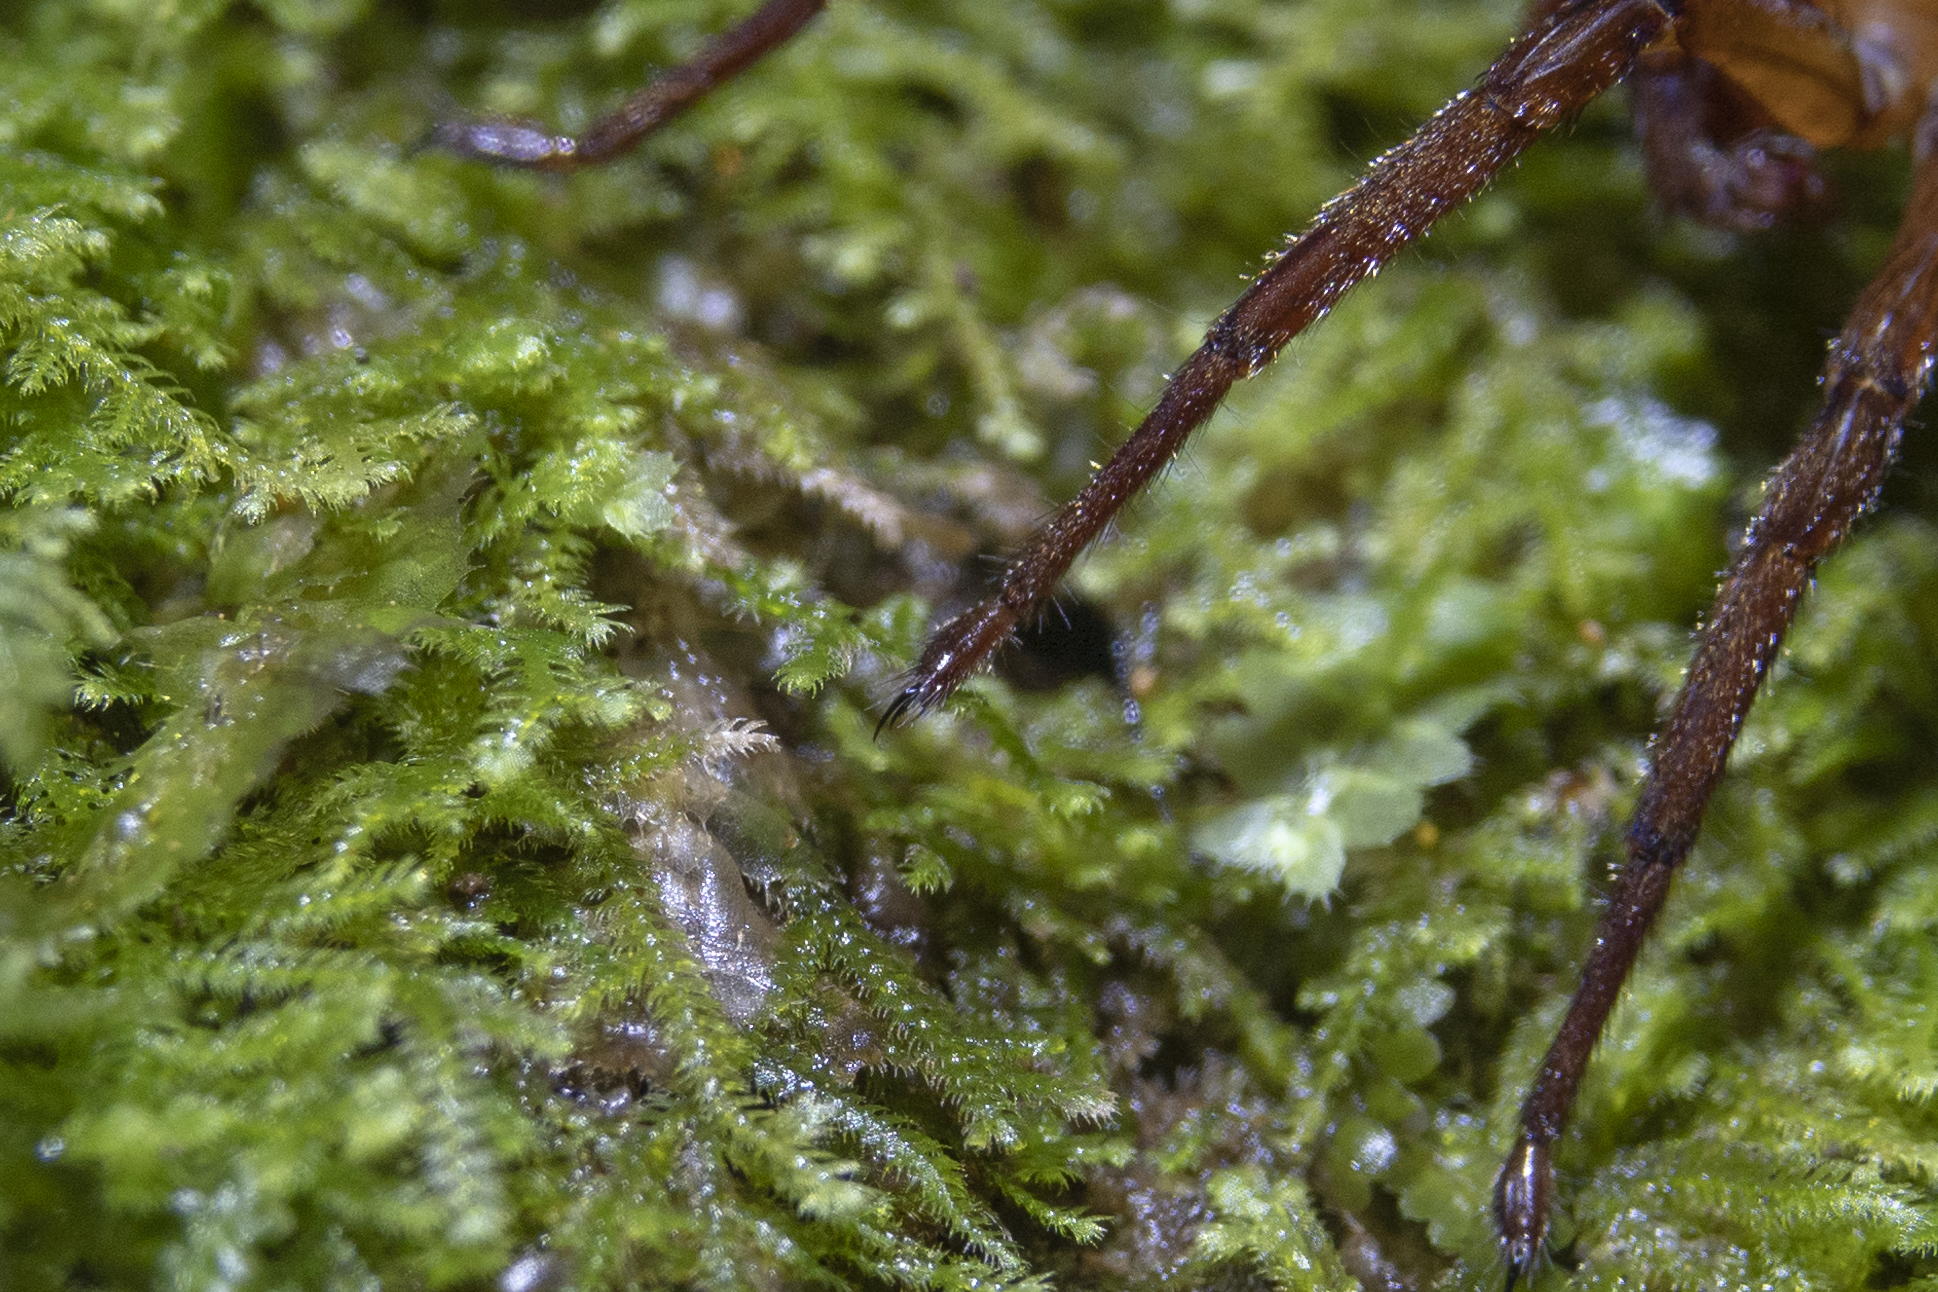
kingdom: Animalia
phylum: Arthropoda
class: Arachnida
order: Araneae
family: Gradungulidae
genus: Gradungula
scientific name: Gradungula sorenseni
